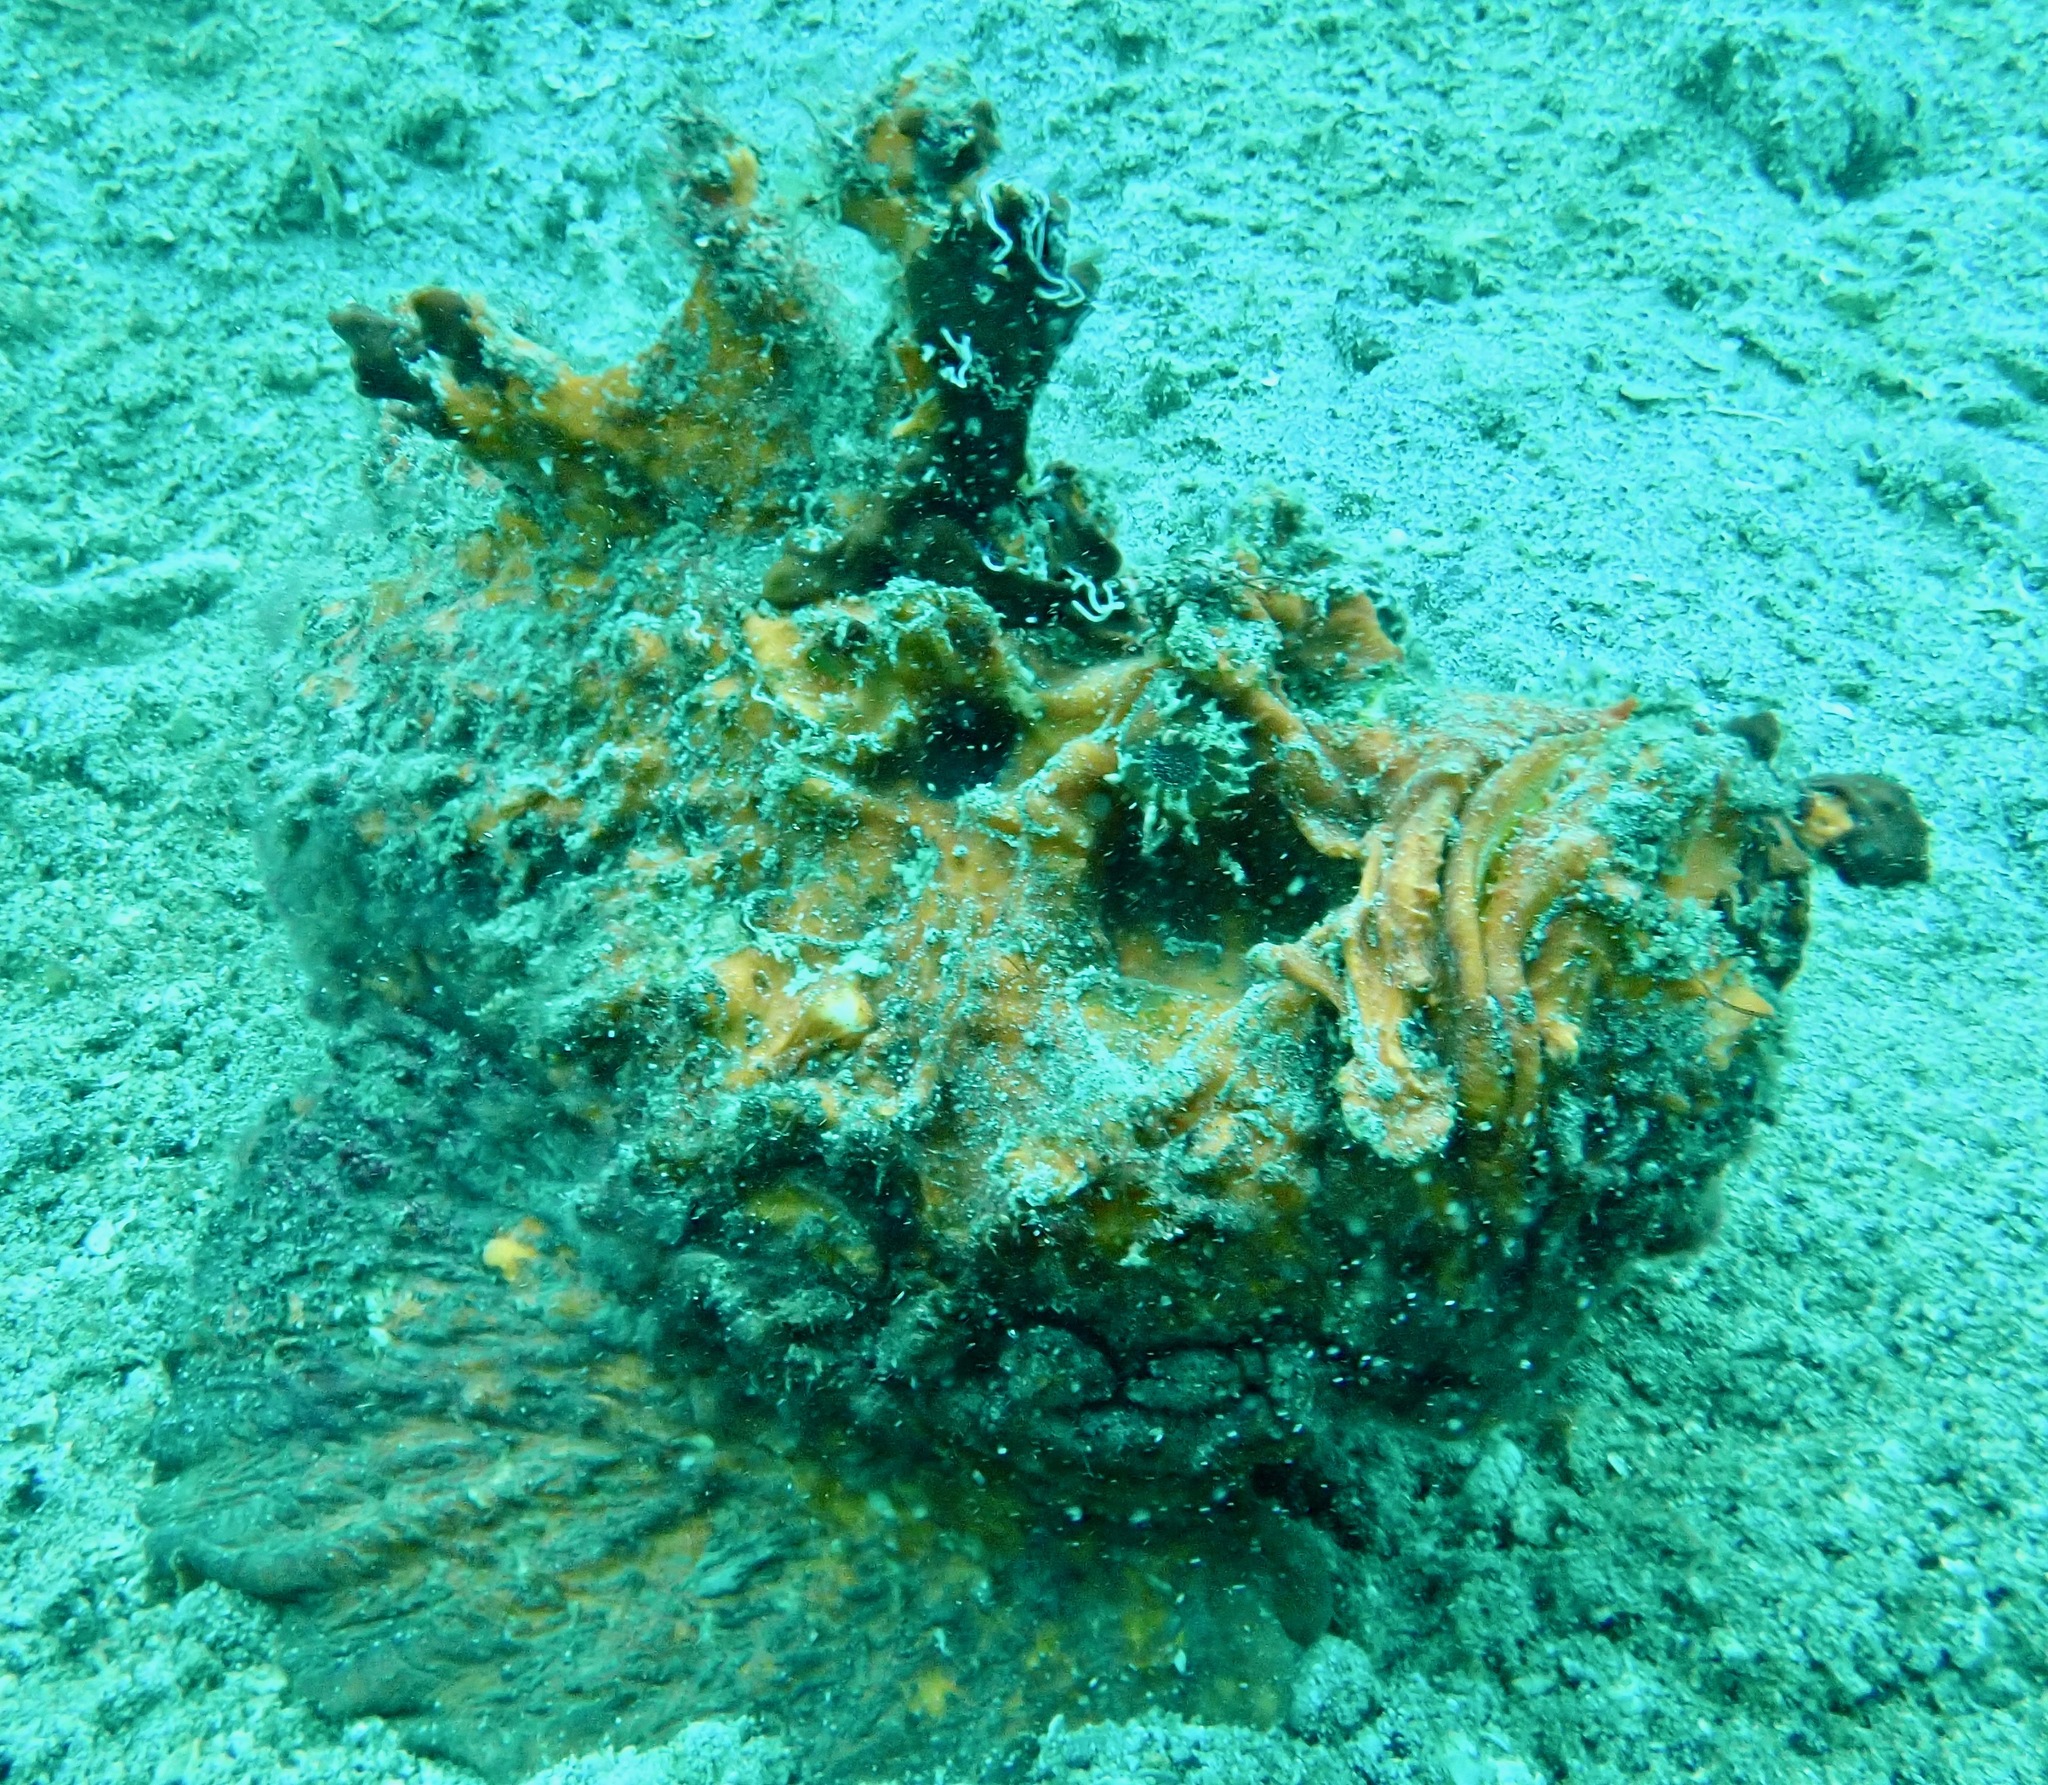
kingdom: Animalia
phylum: Chordata
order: Scorpaeniformes
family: Synanceiidae
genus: Synanceia
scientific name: Synanceia horrida
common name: Estuarine stonefish
